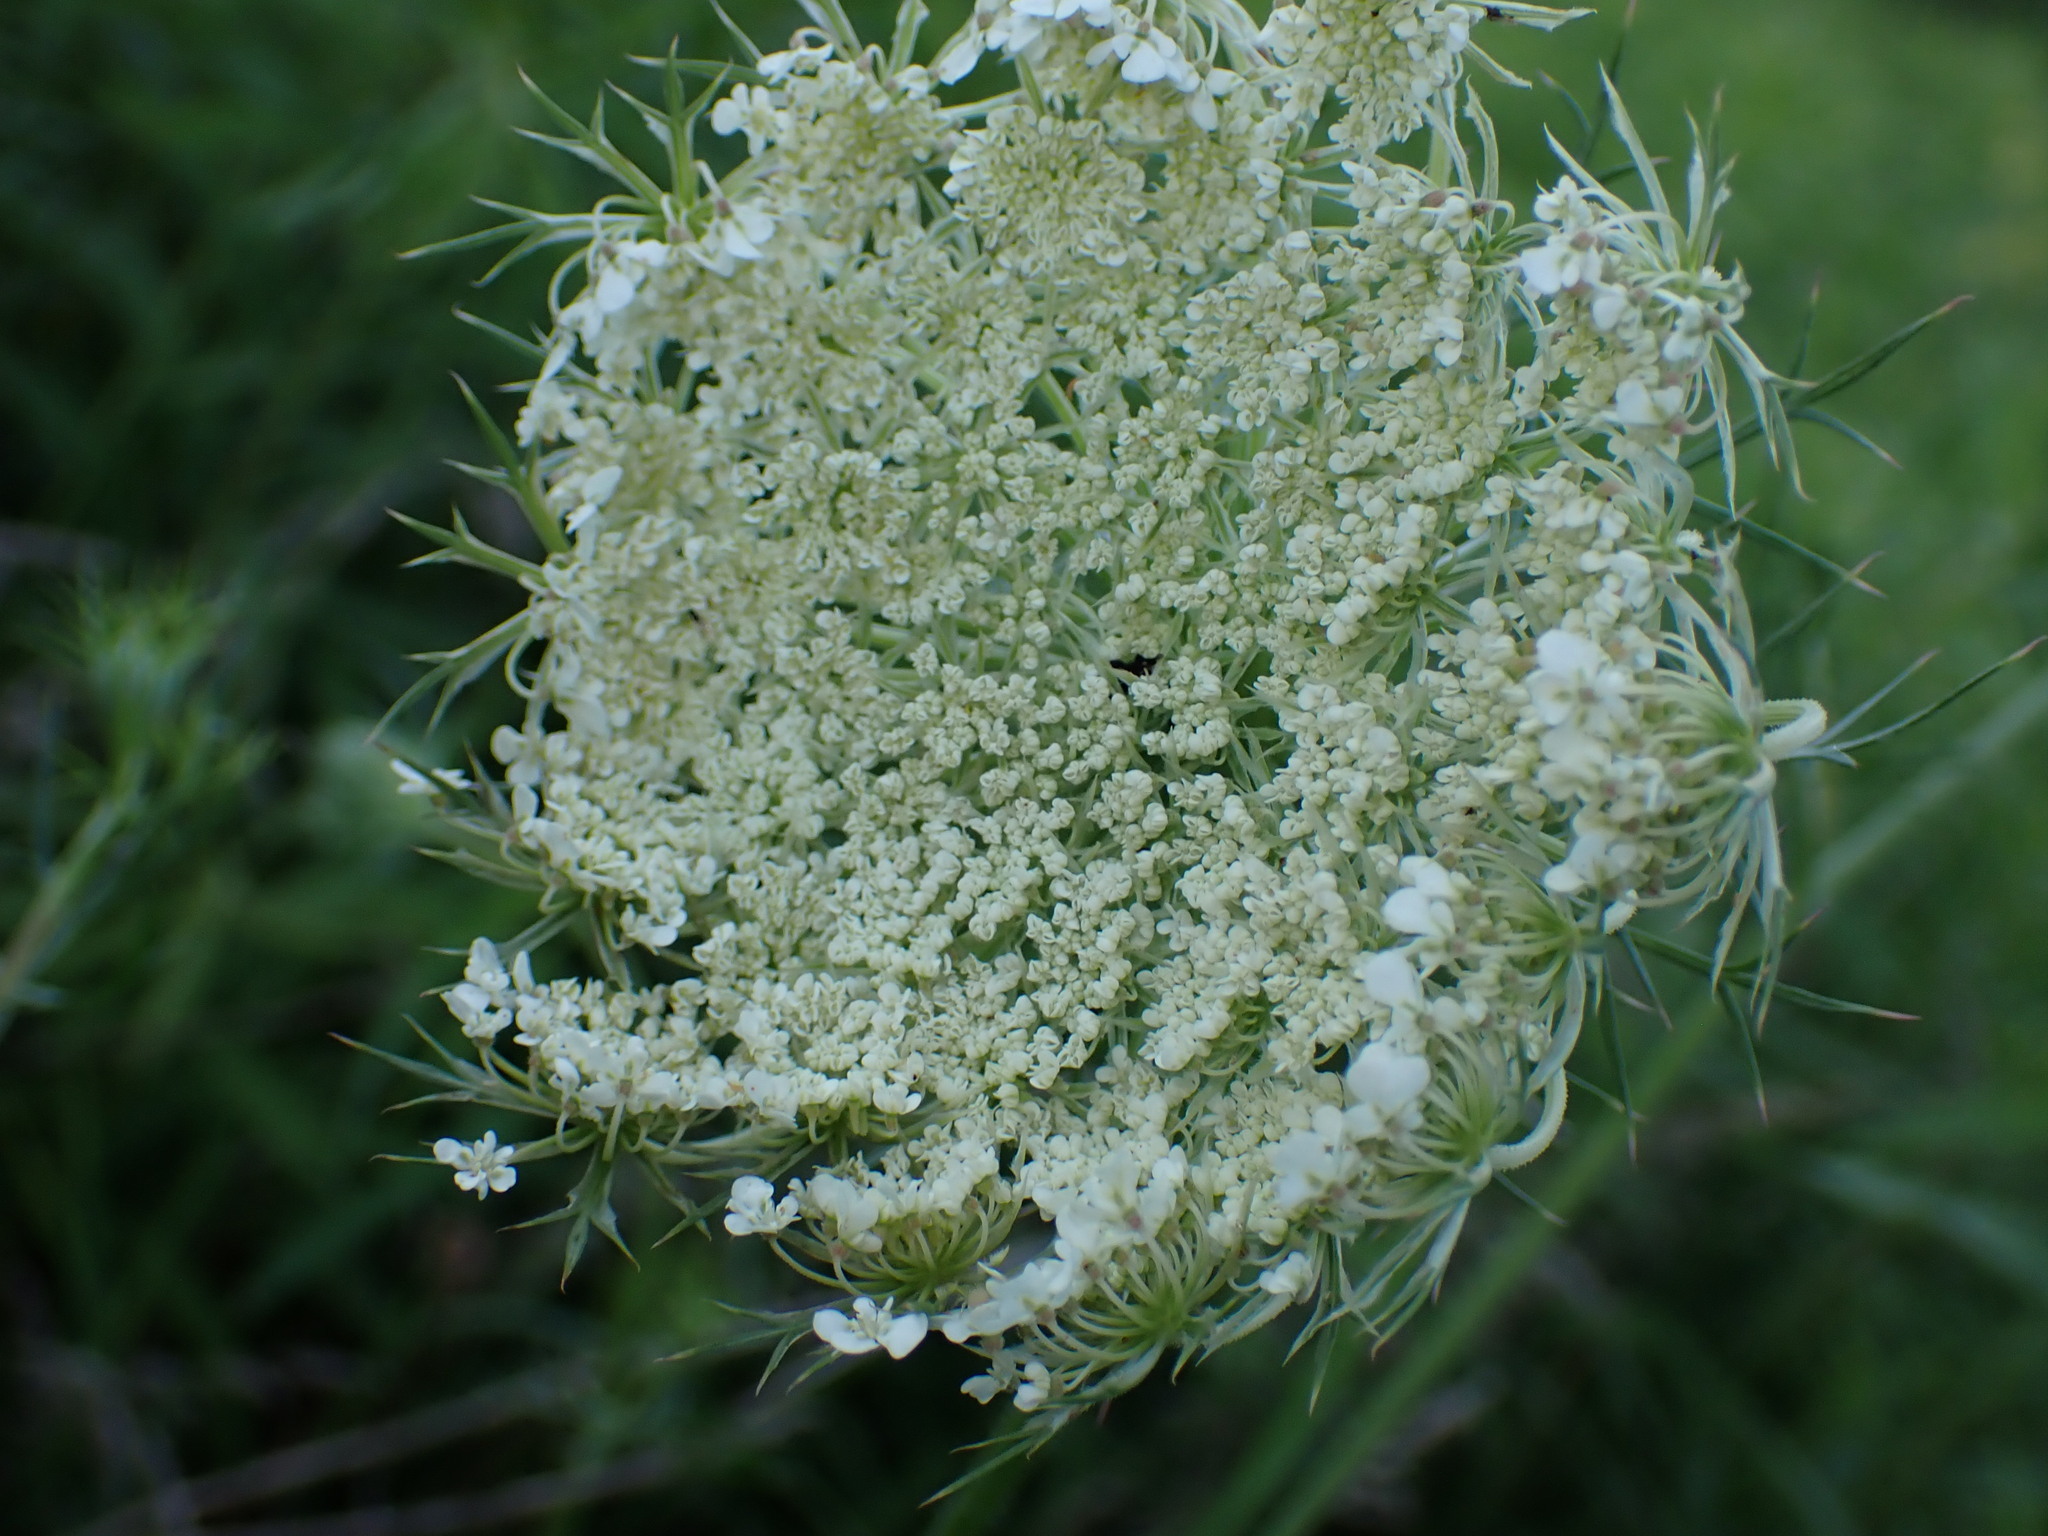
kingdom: Plantae
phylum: Tracheophyta
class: Magnoliopsida
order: Apiales
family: Apiaceae
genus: Daucus
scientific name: Daucus carota
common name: Wild carrot
